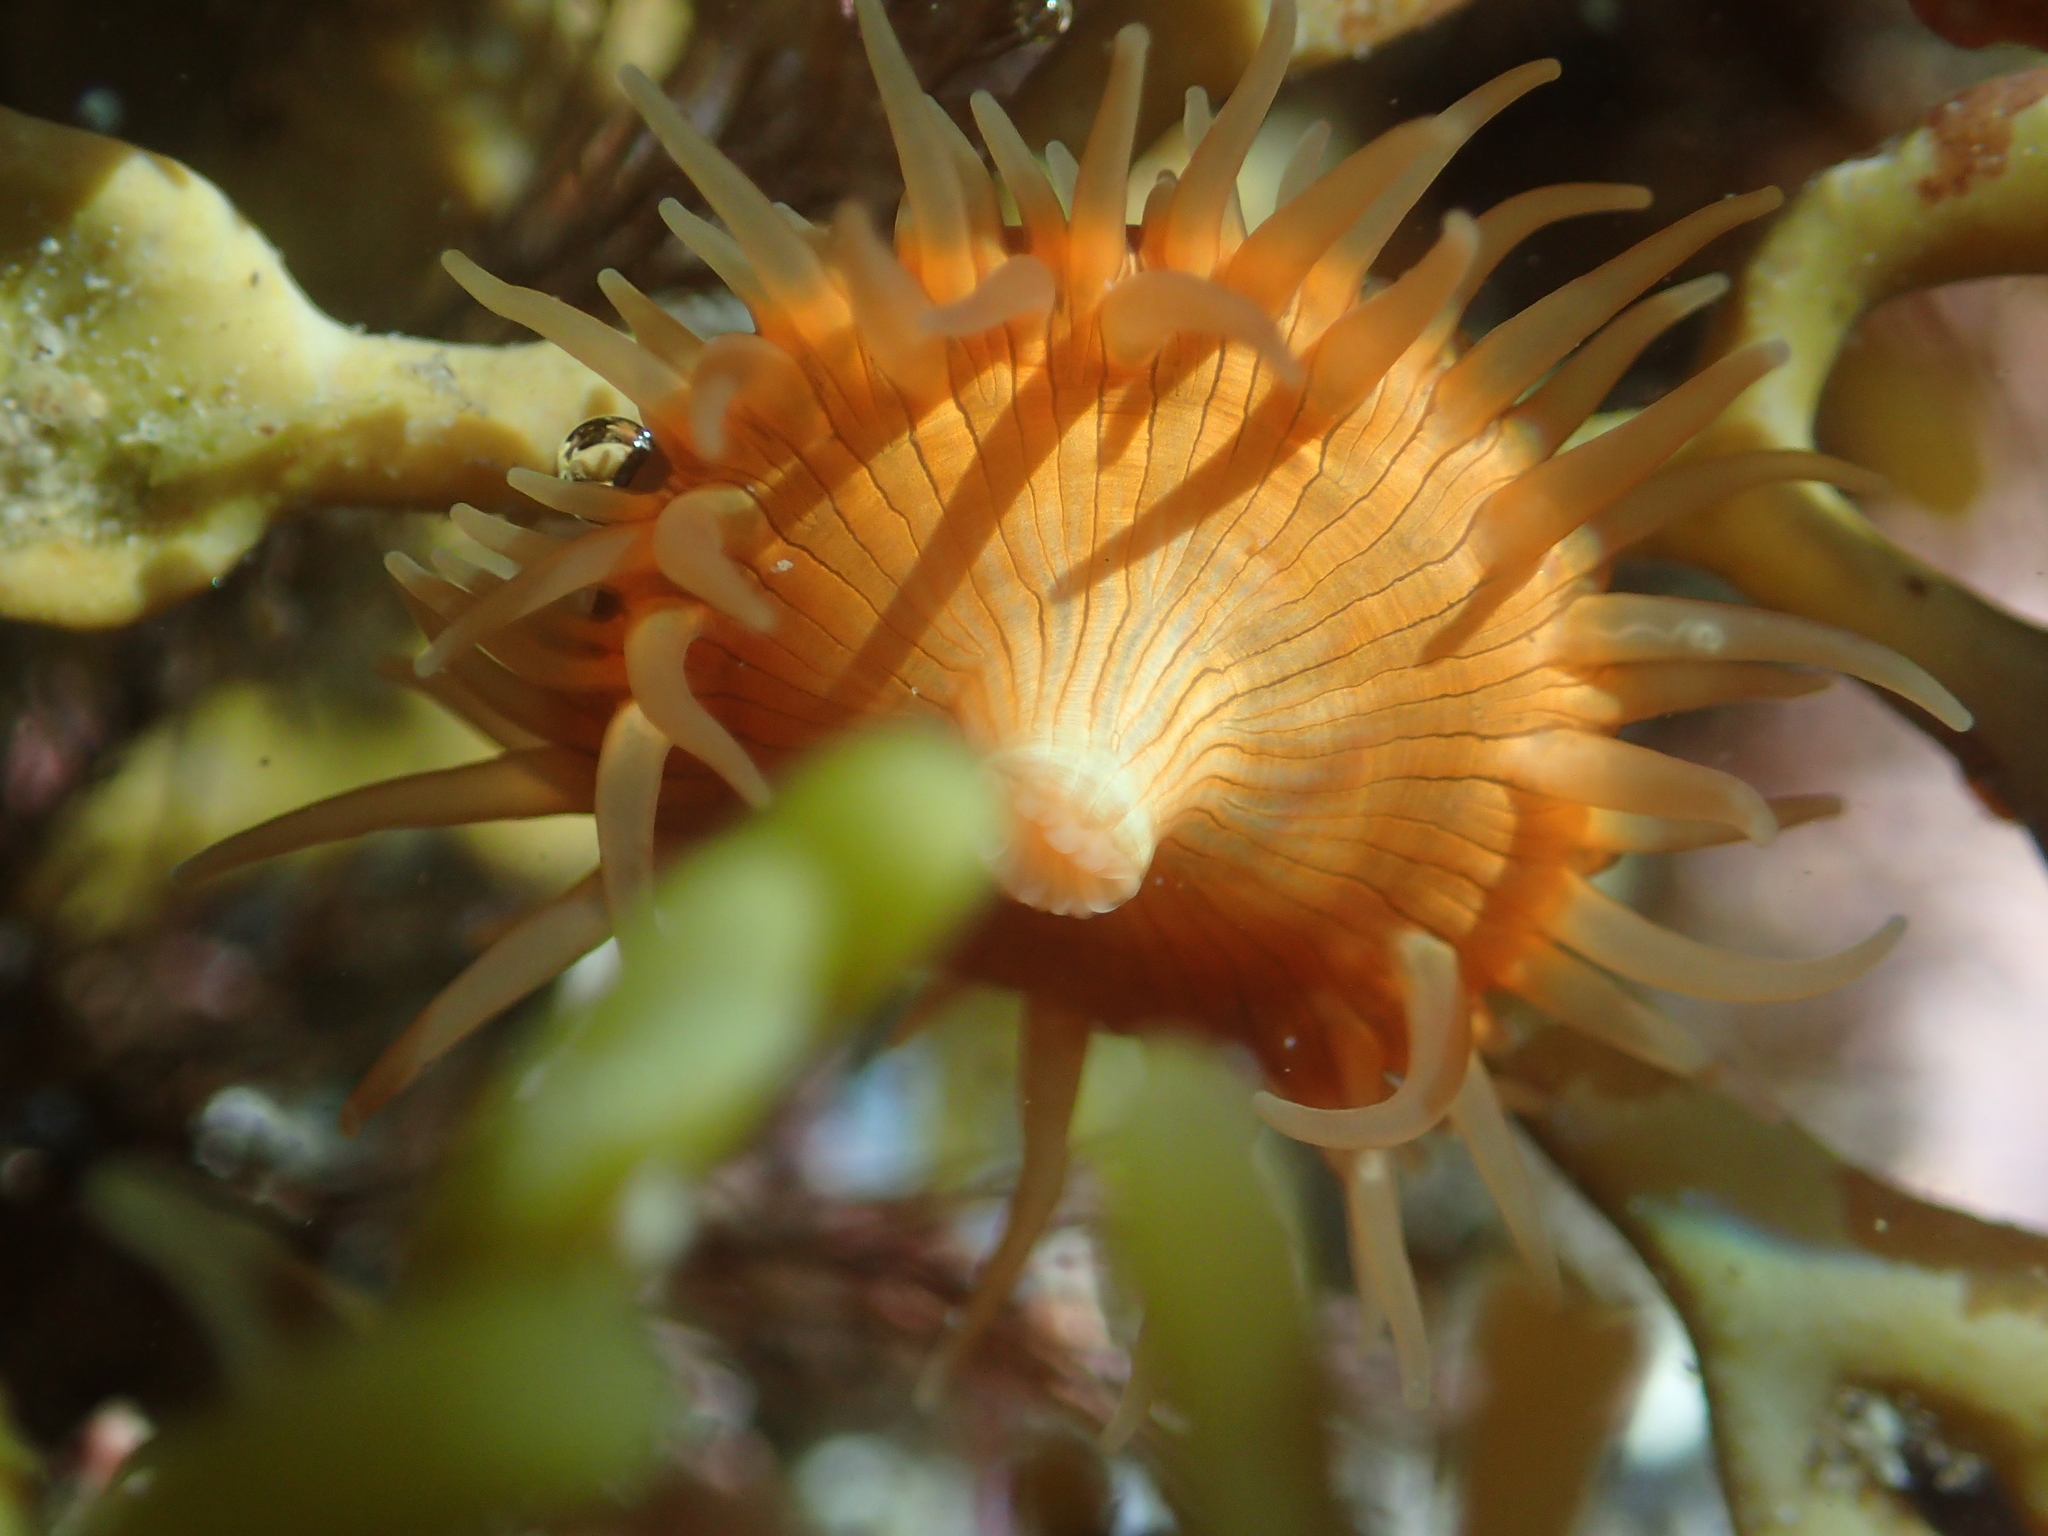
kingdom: Animalia
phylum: Cnidaria
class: Anthozoa
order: Actiniaria
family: Hormathiidae
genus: Handactis
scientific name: Handactis nutrix
